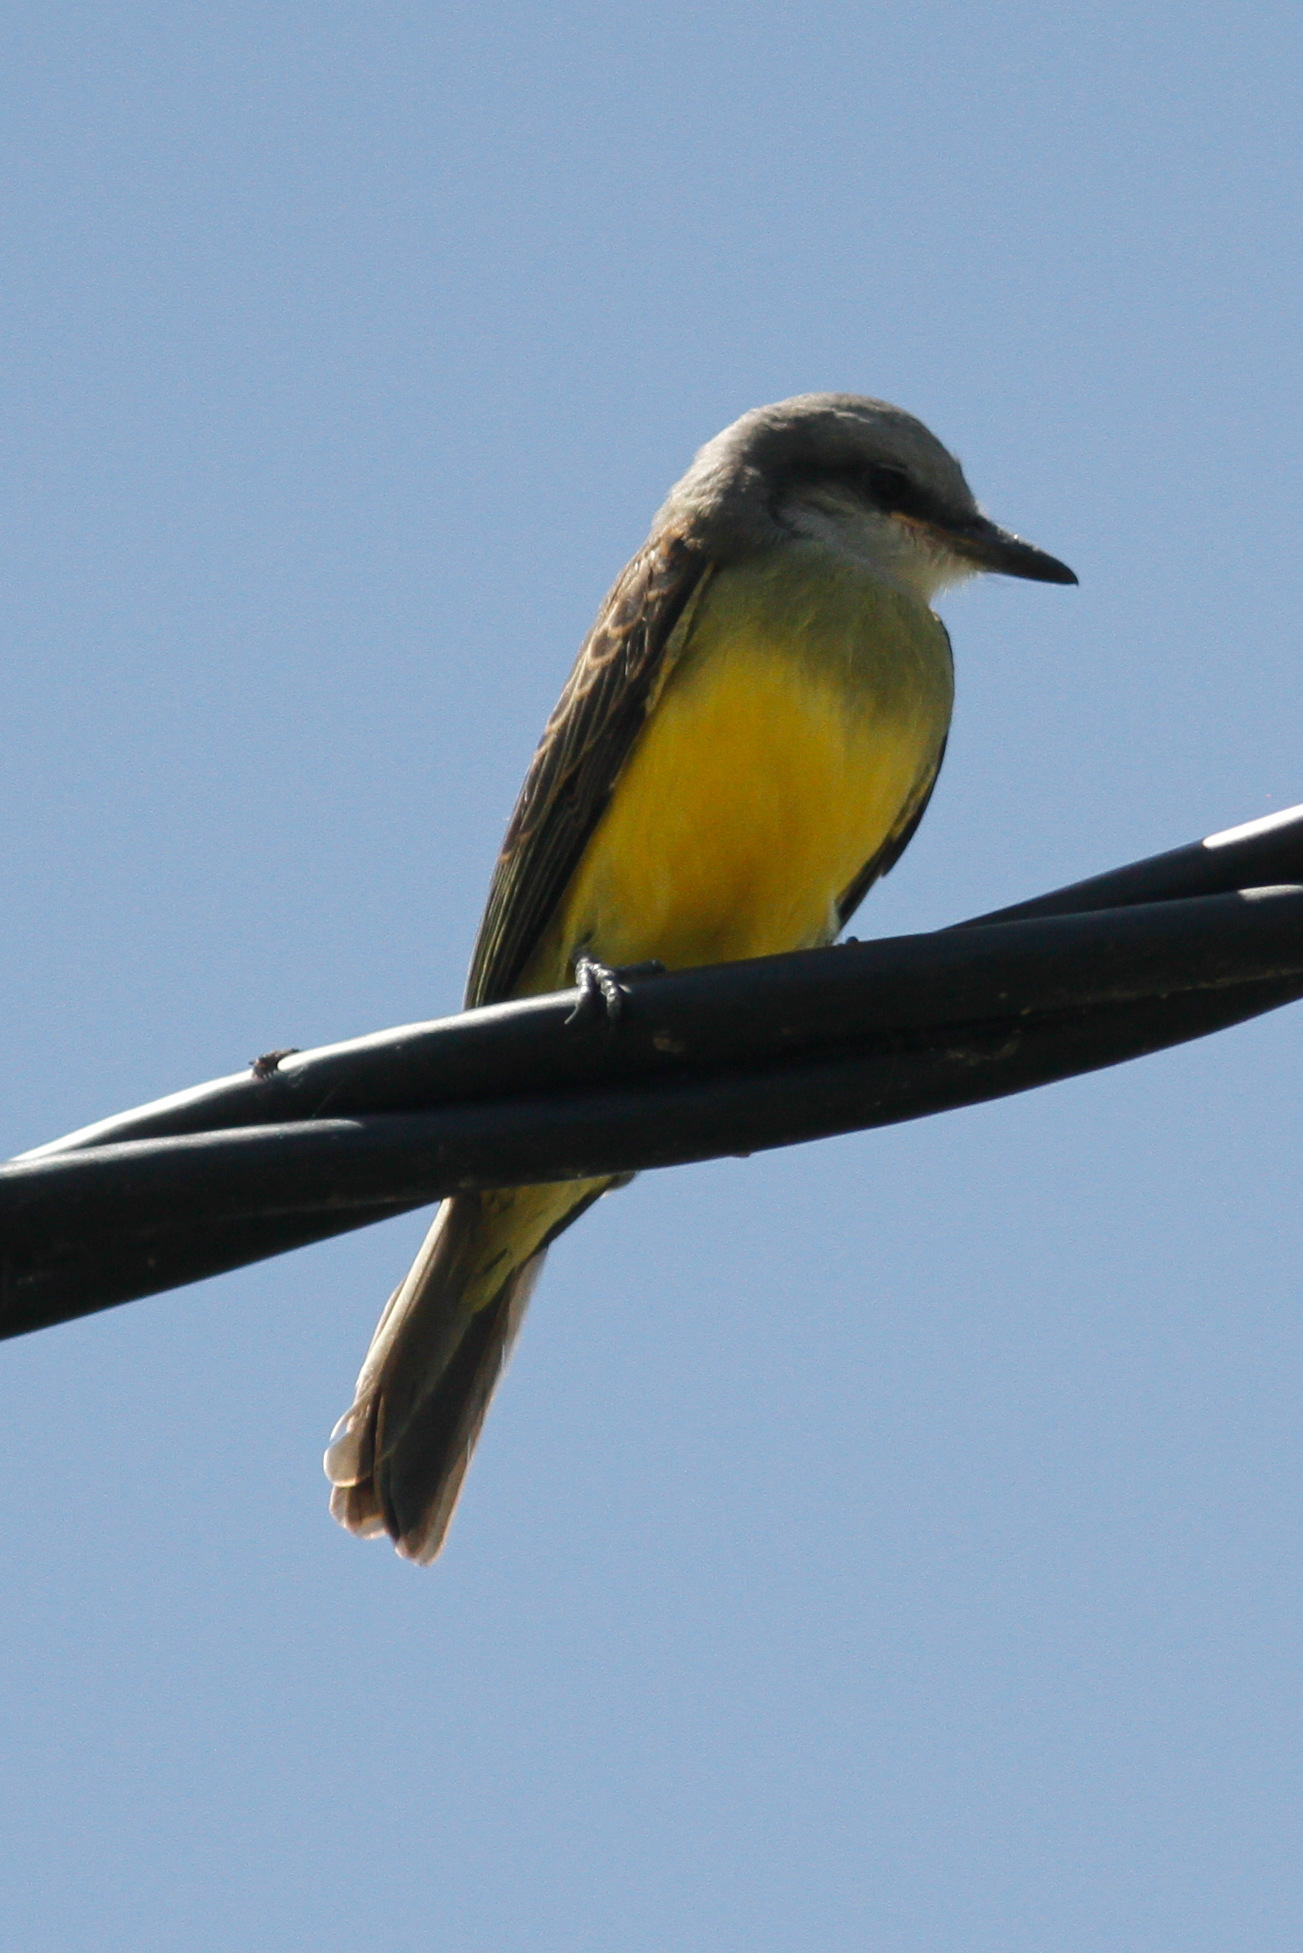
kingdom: Animalia
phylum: Chordata
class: Aves
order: Passeriformes
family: Tyrannidae
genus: Tyrannus
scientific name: Tyrannus melancholicus
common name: Tropical kingbird
